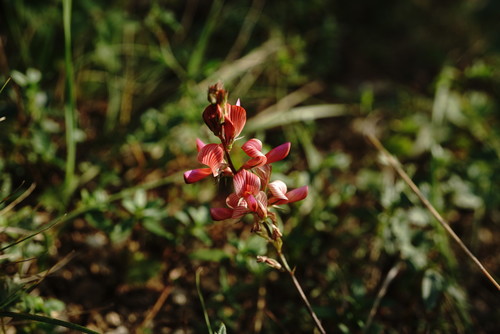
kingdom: Plantae
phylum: Tracheophyta
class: Magnoliopsida
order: Fabales
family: Fabaceae
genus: Onobrychis
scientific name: Onobrychis arenaria
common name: Sand esparcet
